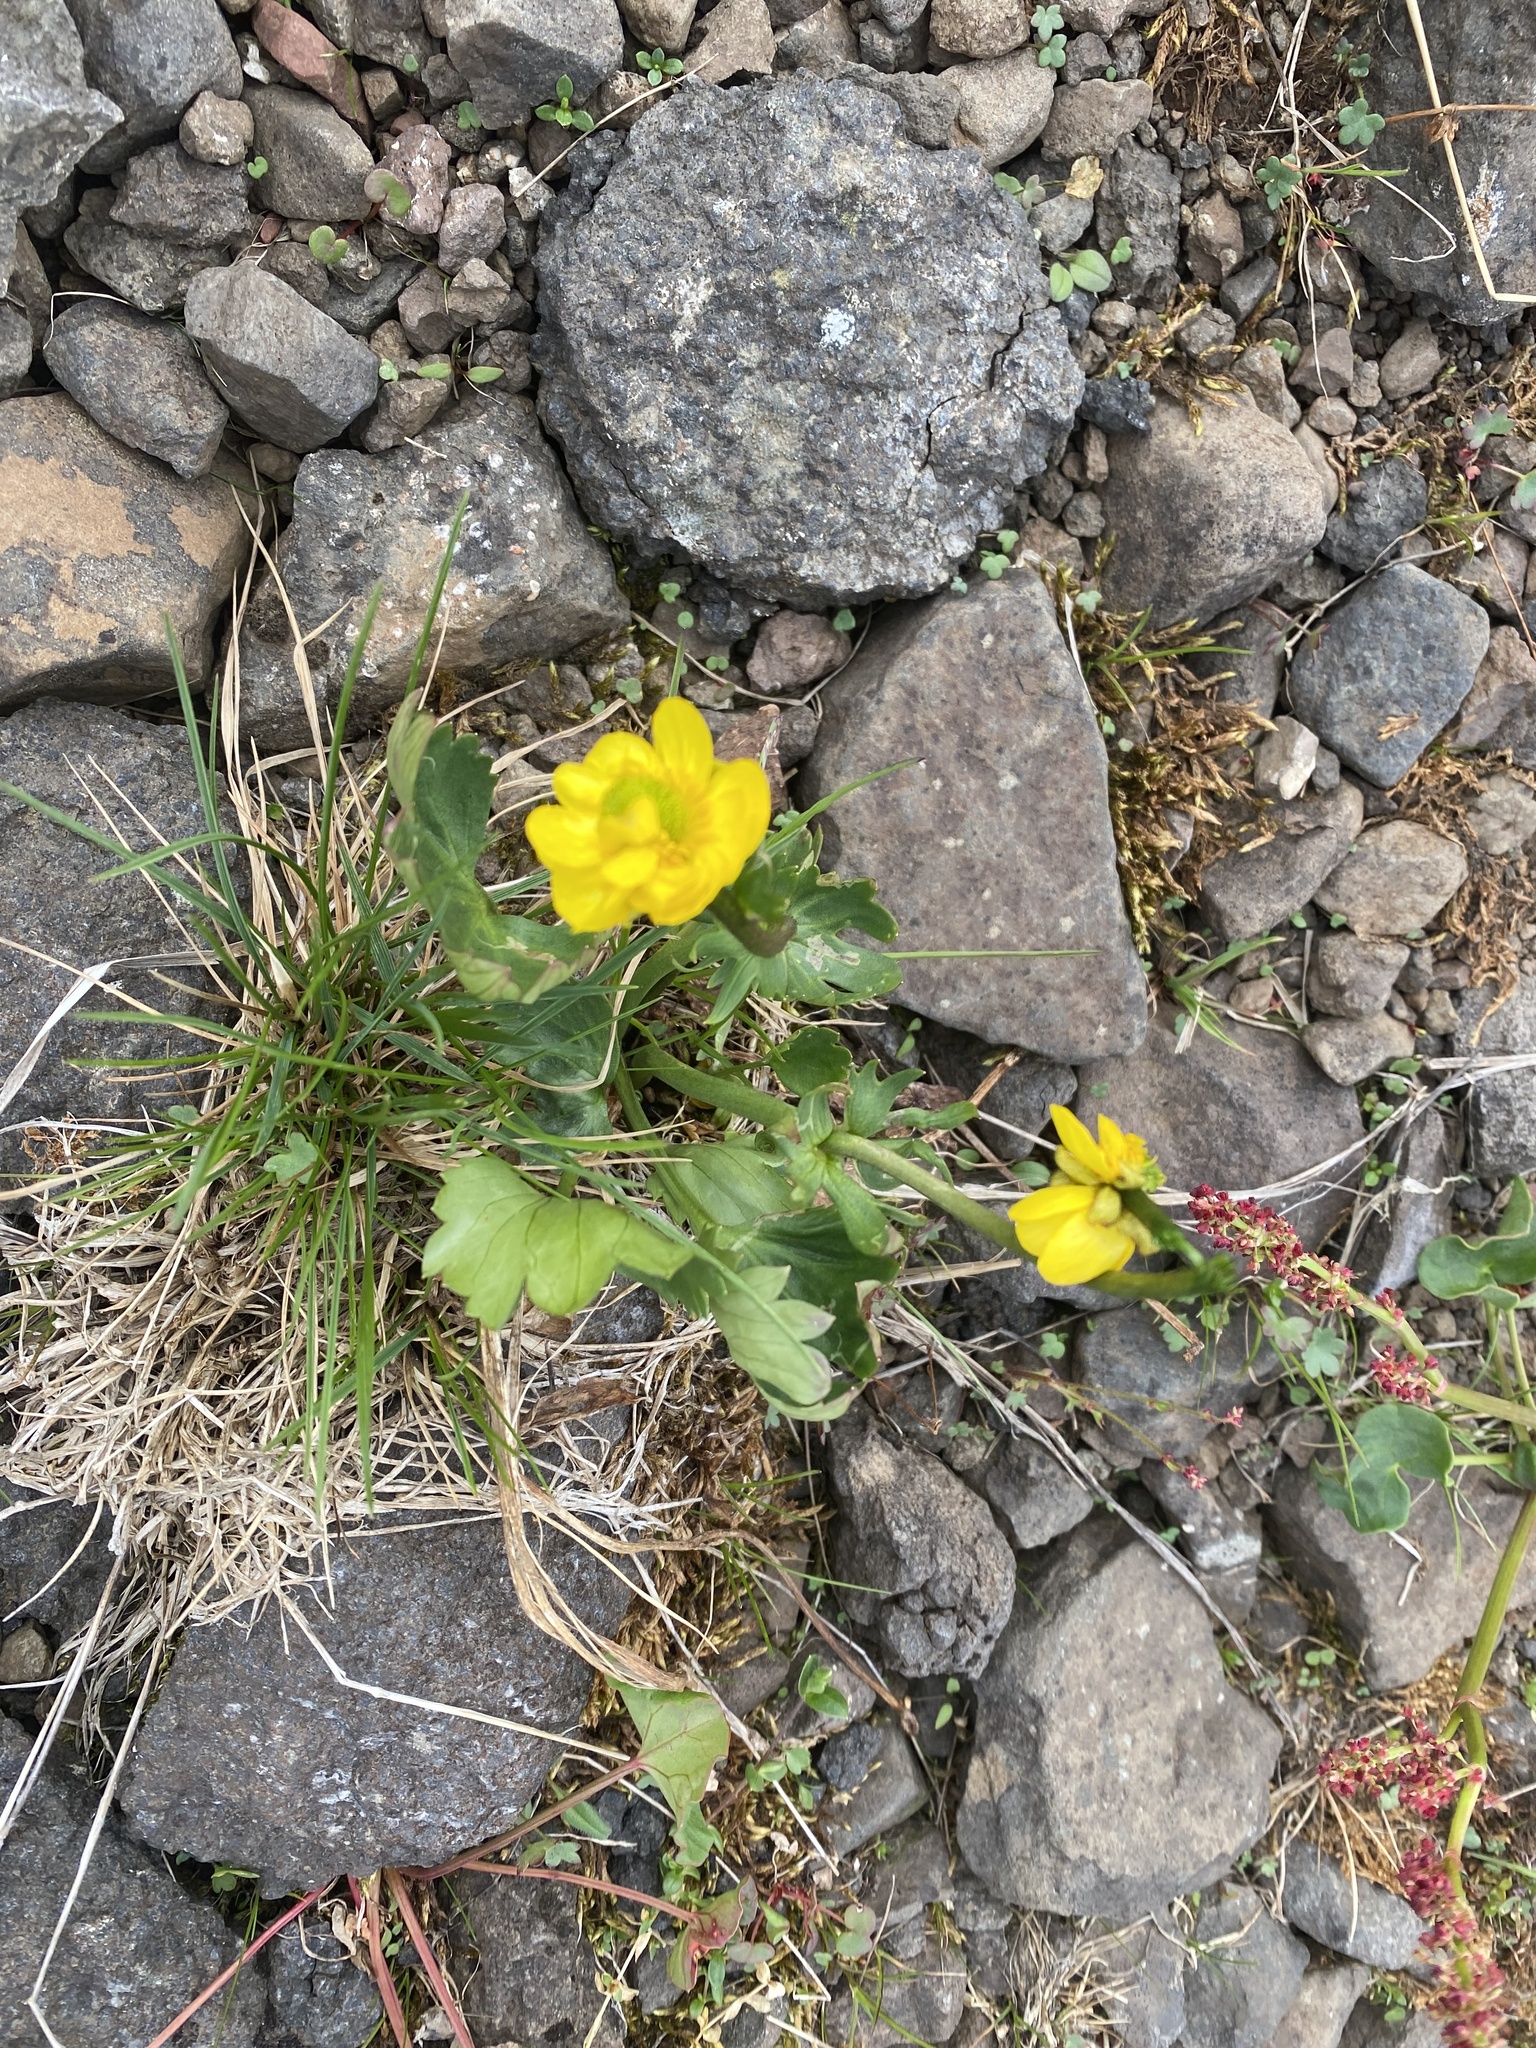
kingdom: Plantae
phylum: Tracheophyta
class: Magnoliopsida
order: Ranunculales
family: Ranunculaceae
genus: Ranunculus
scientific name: Ranunculus sulphureus
